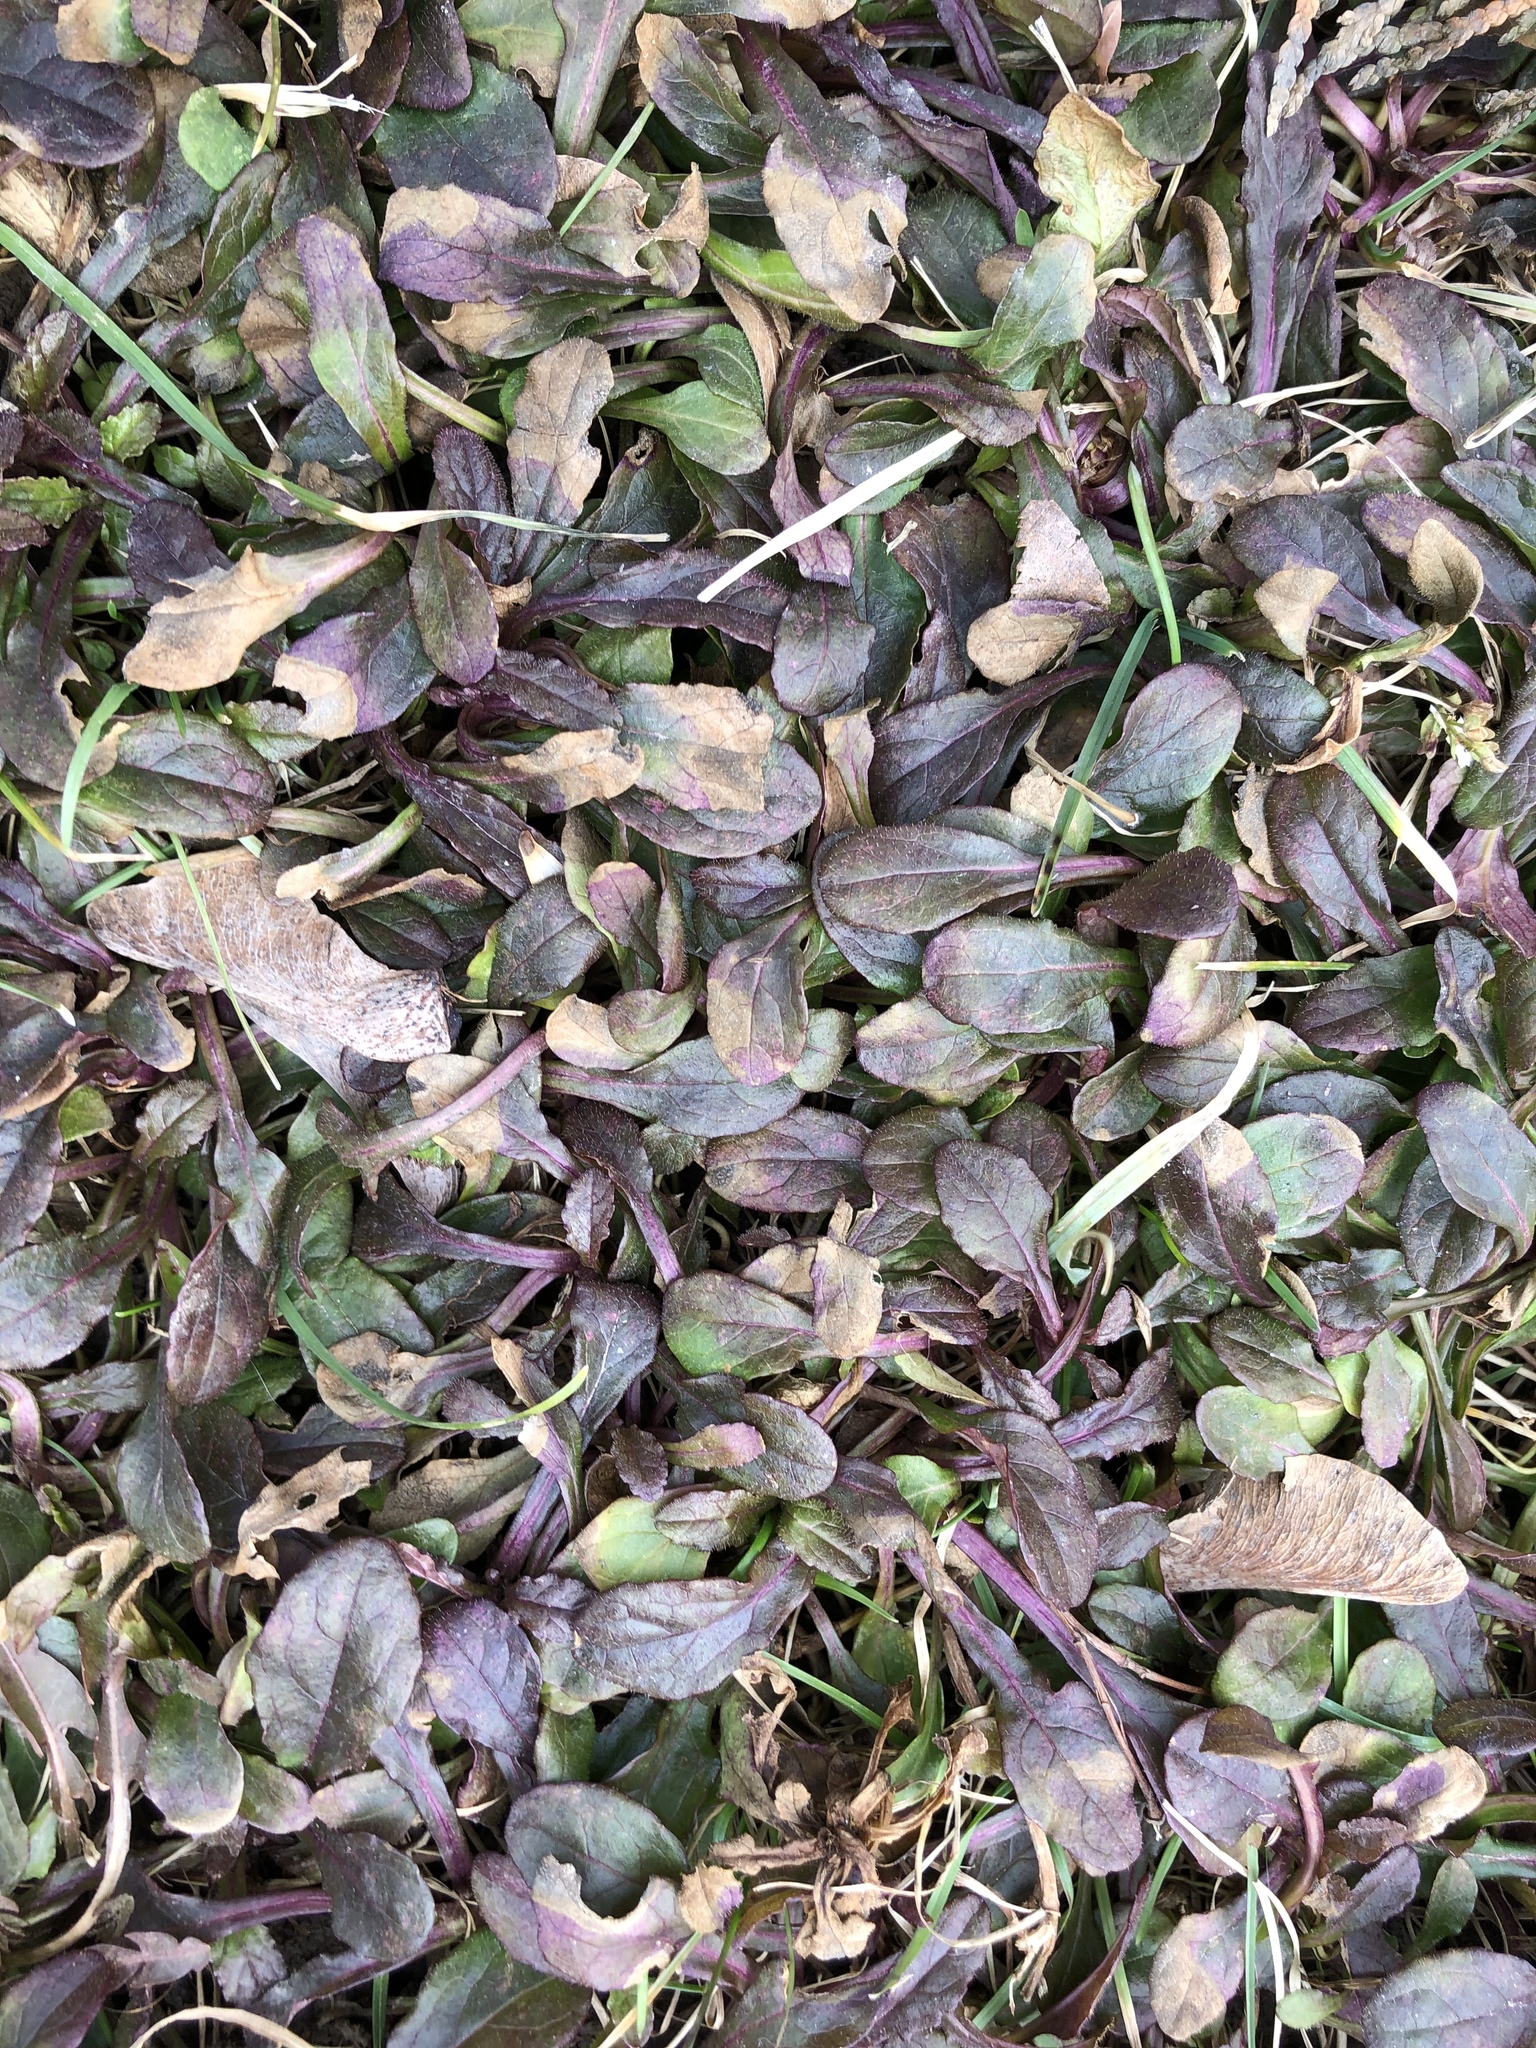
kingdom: Plantae
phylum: Tracheophyta
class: Magnoliopsida
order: Lamiales
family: Lamiaceae
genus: Ajuga
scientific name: Ajuga reptans
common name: Bugle
